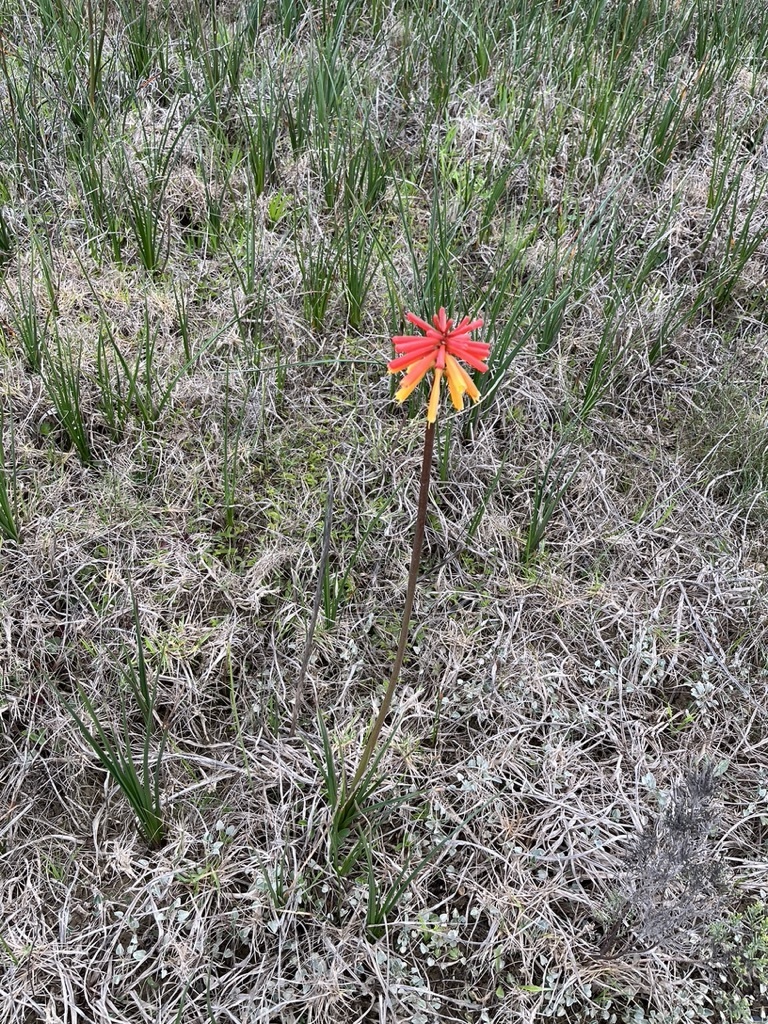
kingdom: Plantae
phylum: Tracheophyta
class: Liliopsida
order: Asparagales
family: Asphodelaceae
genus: Kniphofia
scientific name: Kniphofia uvaria
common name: Red-hot-poker
